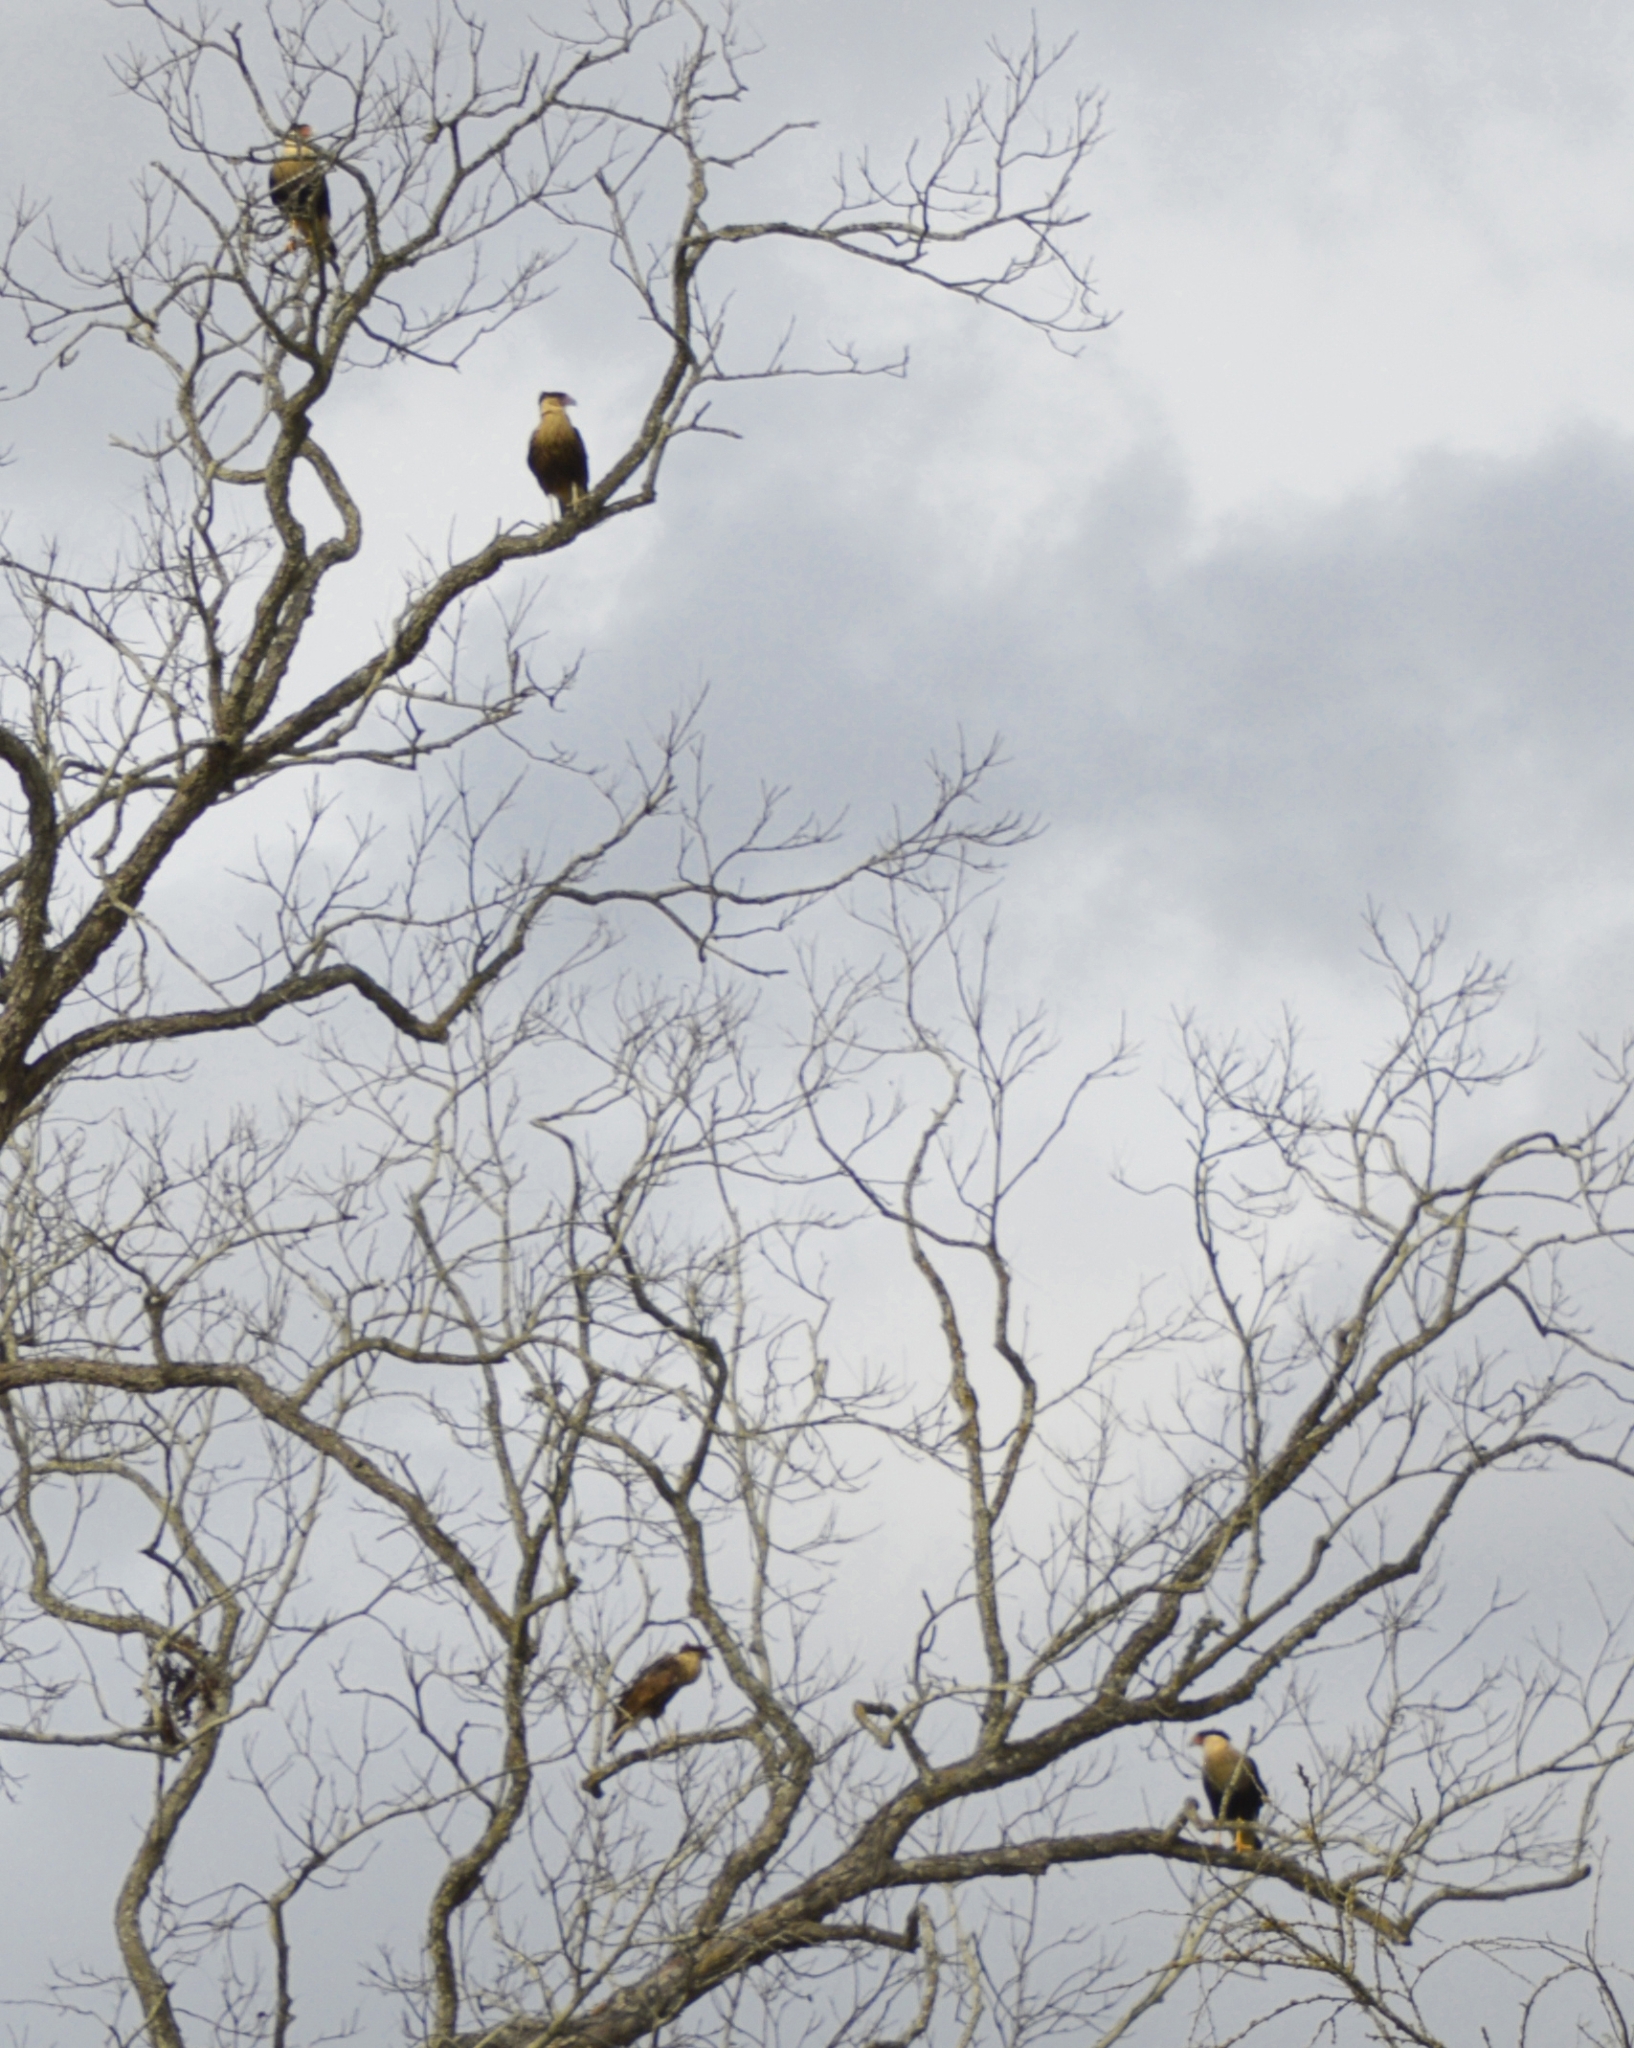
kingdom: Animalia
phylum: Chordata
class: Aves
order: Falconiformes
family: Falconidae
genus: Caracara
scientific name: Caracara plancus
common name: Southern caracara
